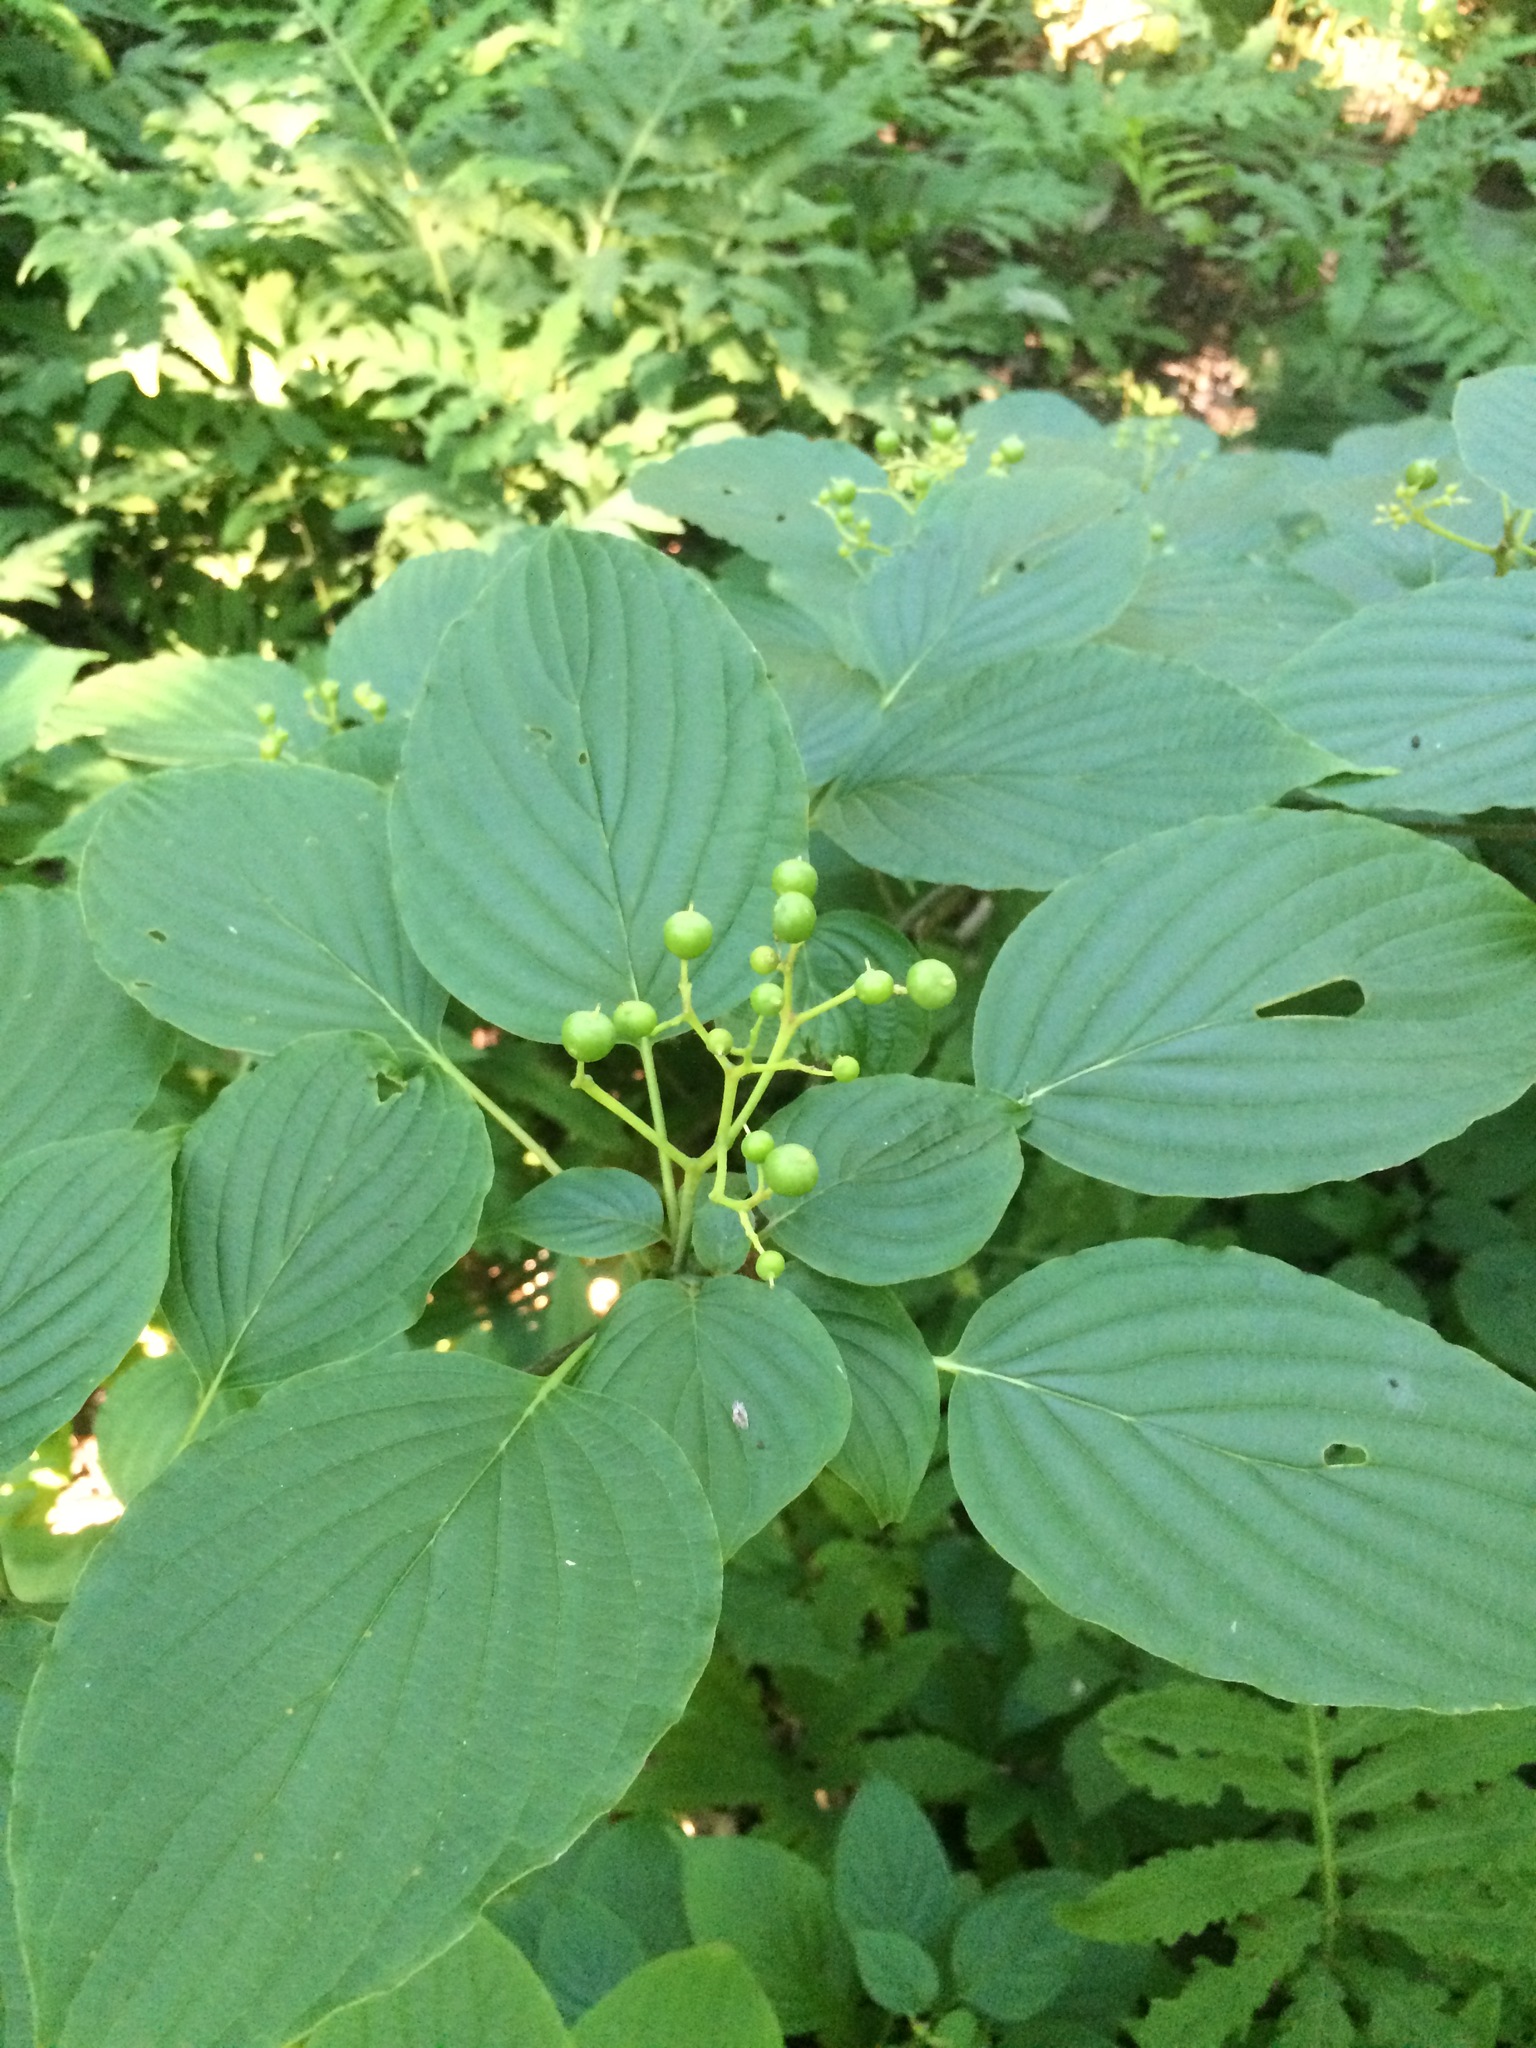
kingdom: Plantae
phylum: Tracheophyta
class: Magnoliopsida
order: Cornales
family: Cornaceae
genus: Cornus
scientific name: Cornus alternifolia
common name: Pagoda dogwood
